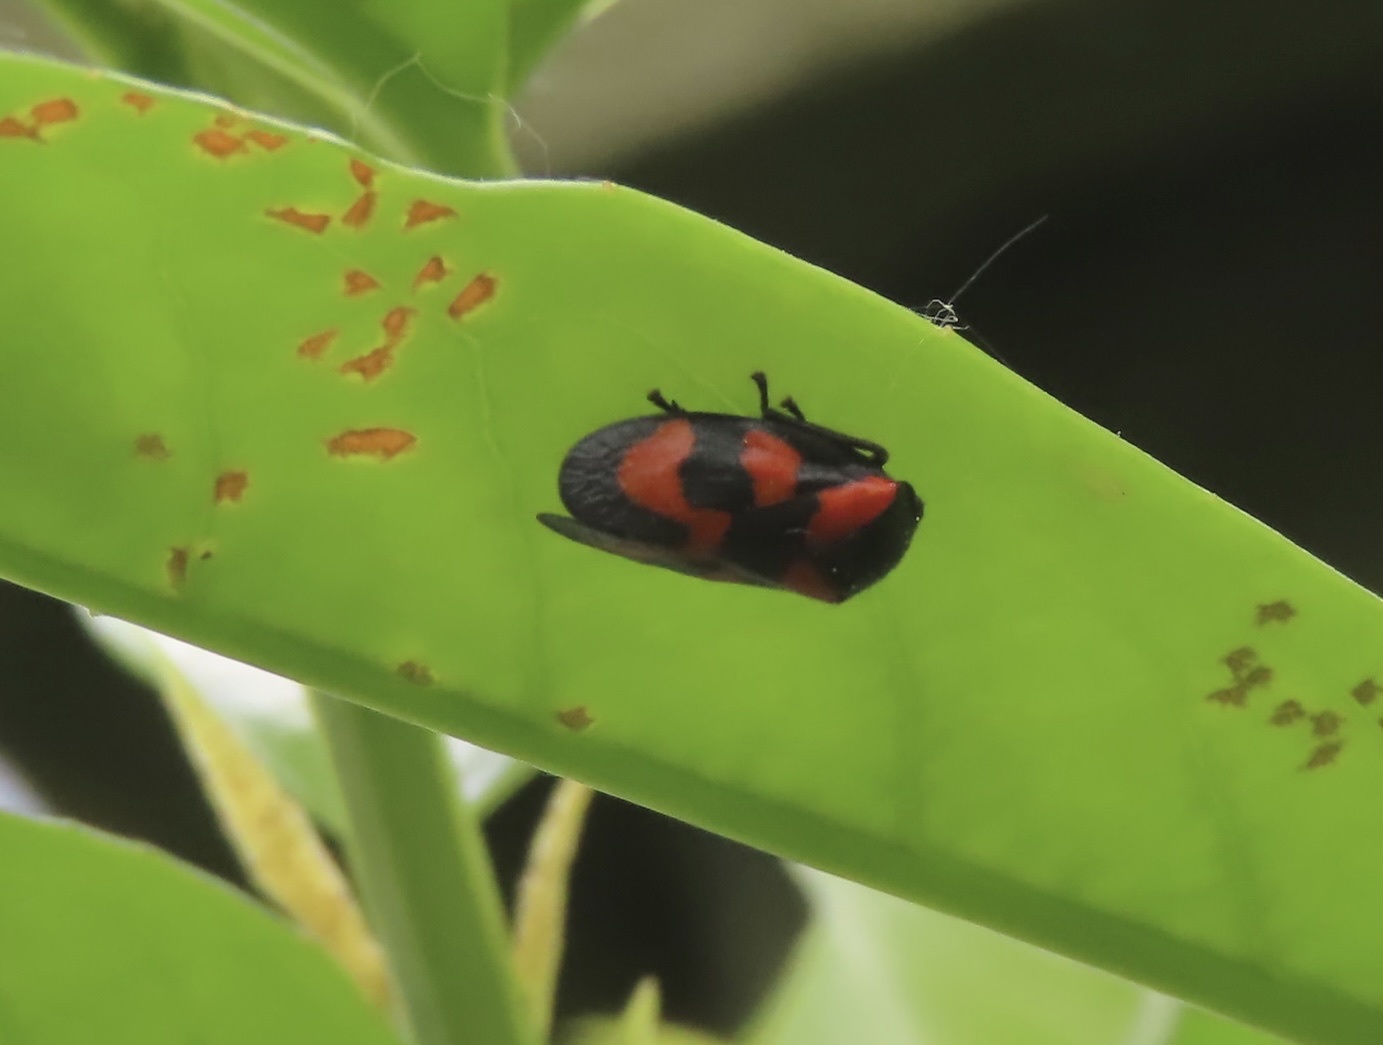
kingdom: Animalia
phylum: Arthropoda
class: Insecta
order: Hemiptera
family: Cercopidae
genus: Cercopis
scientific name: Cercopis vulnerata
